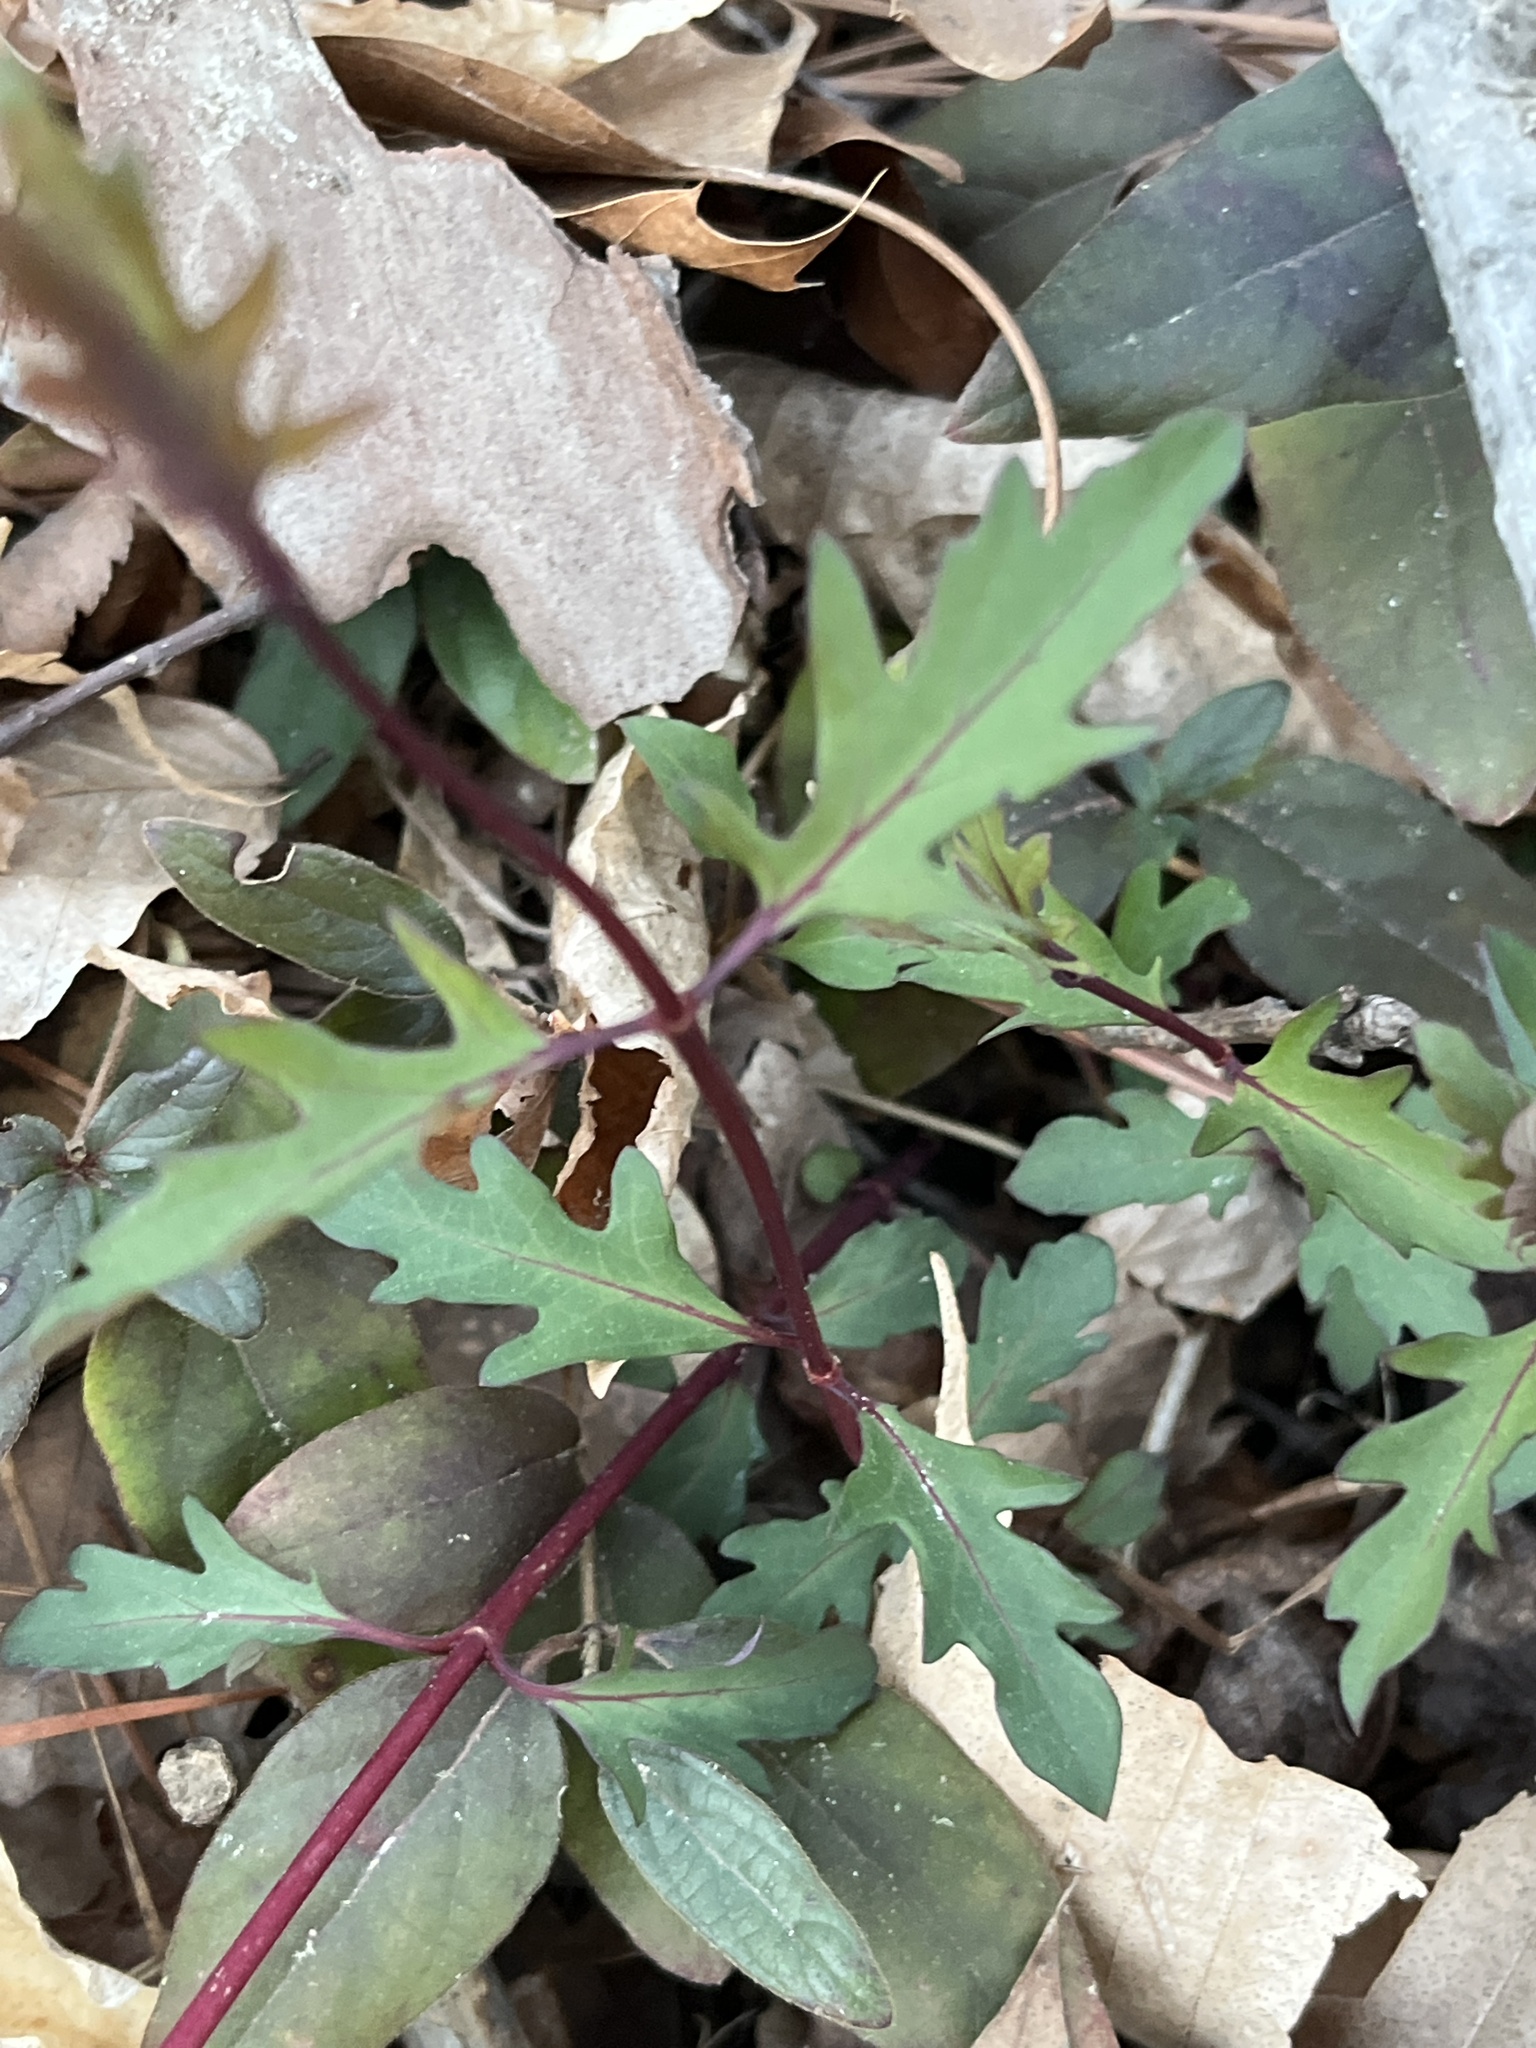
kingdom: Plantae
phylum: Tracheophyta
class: Magnoliopsida
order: Dipsacales
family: Caprifoliaceae
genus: Lonicera
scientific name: Lonicera japonica
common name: Japanese honeysuckle
